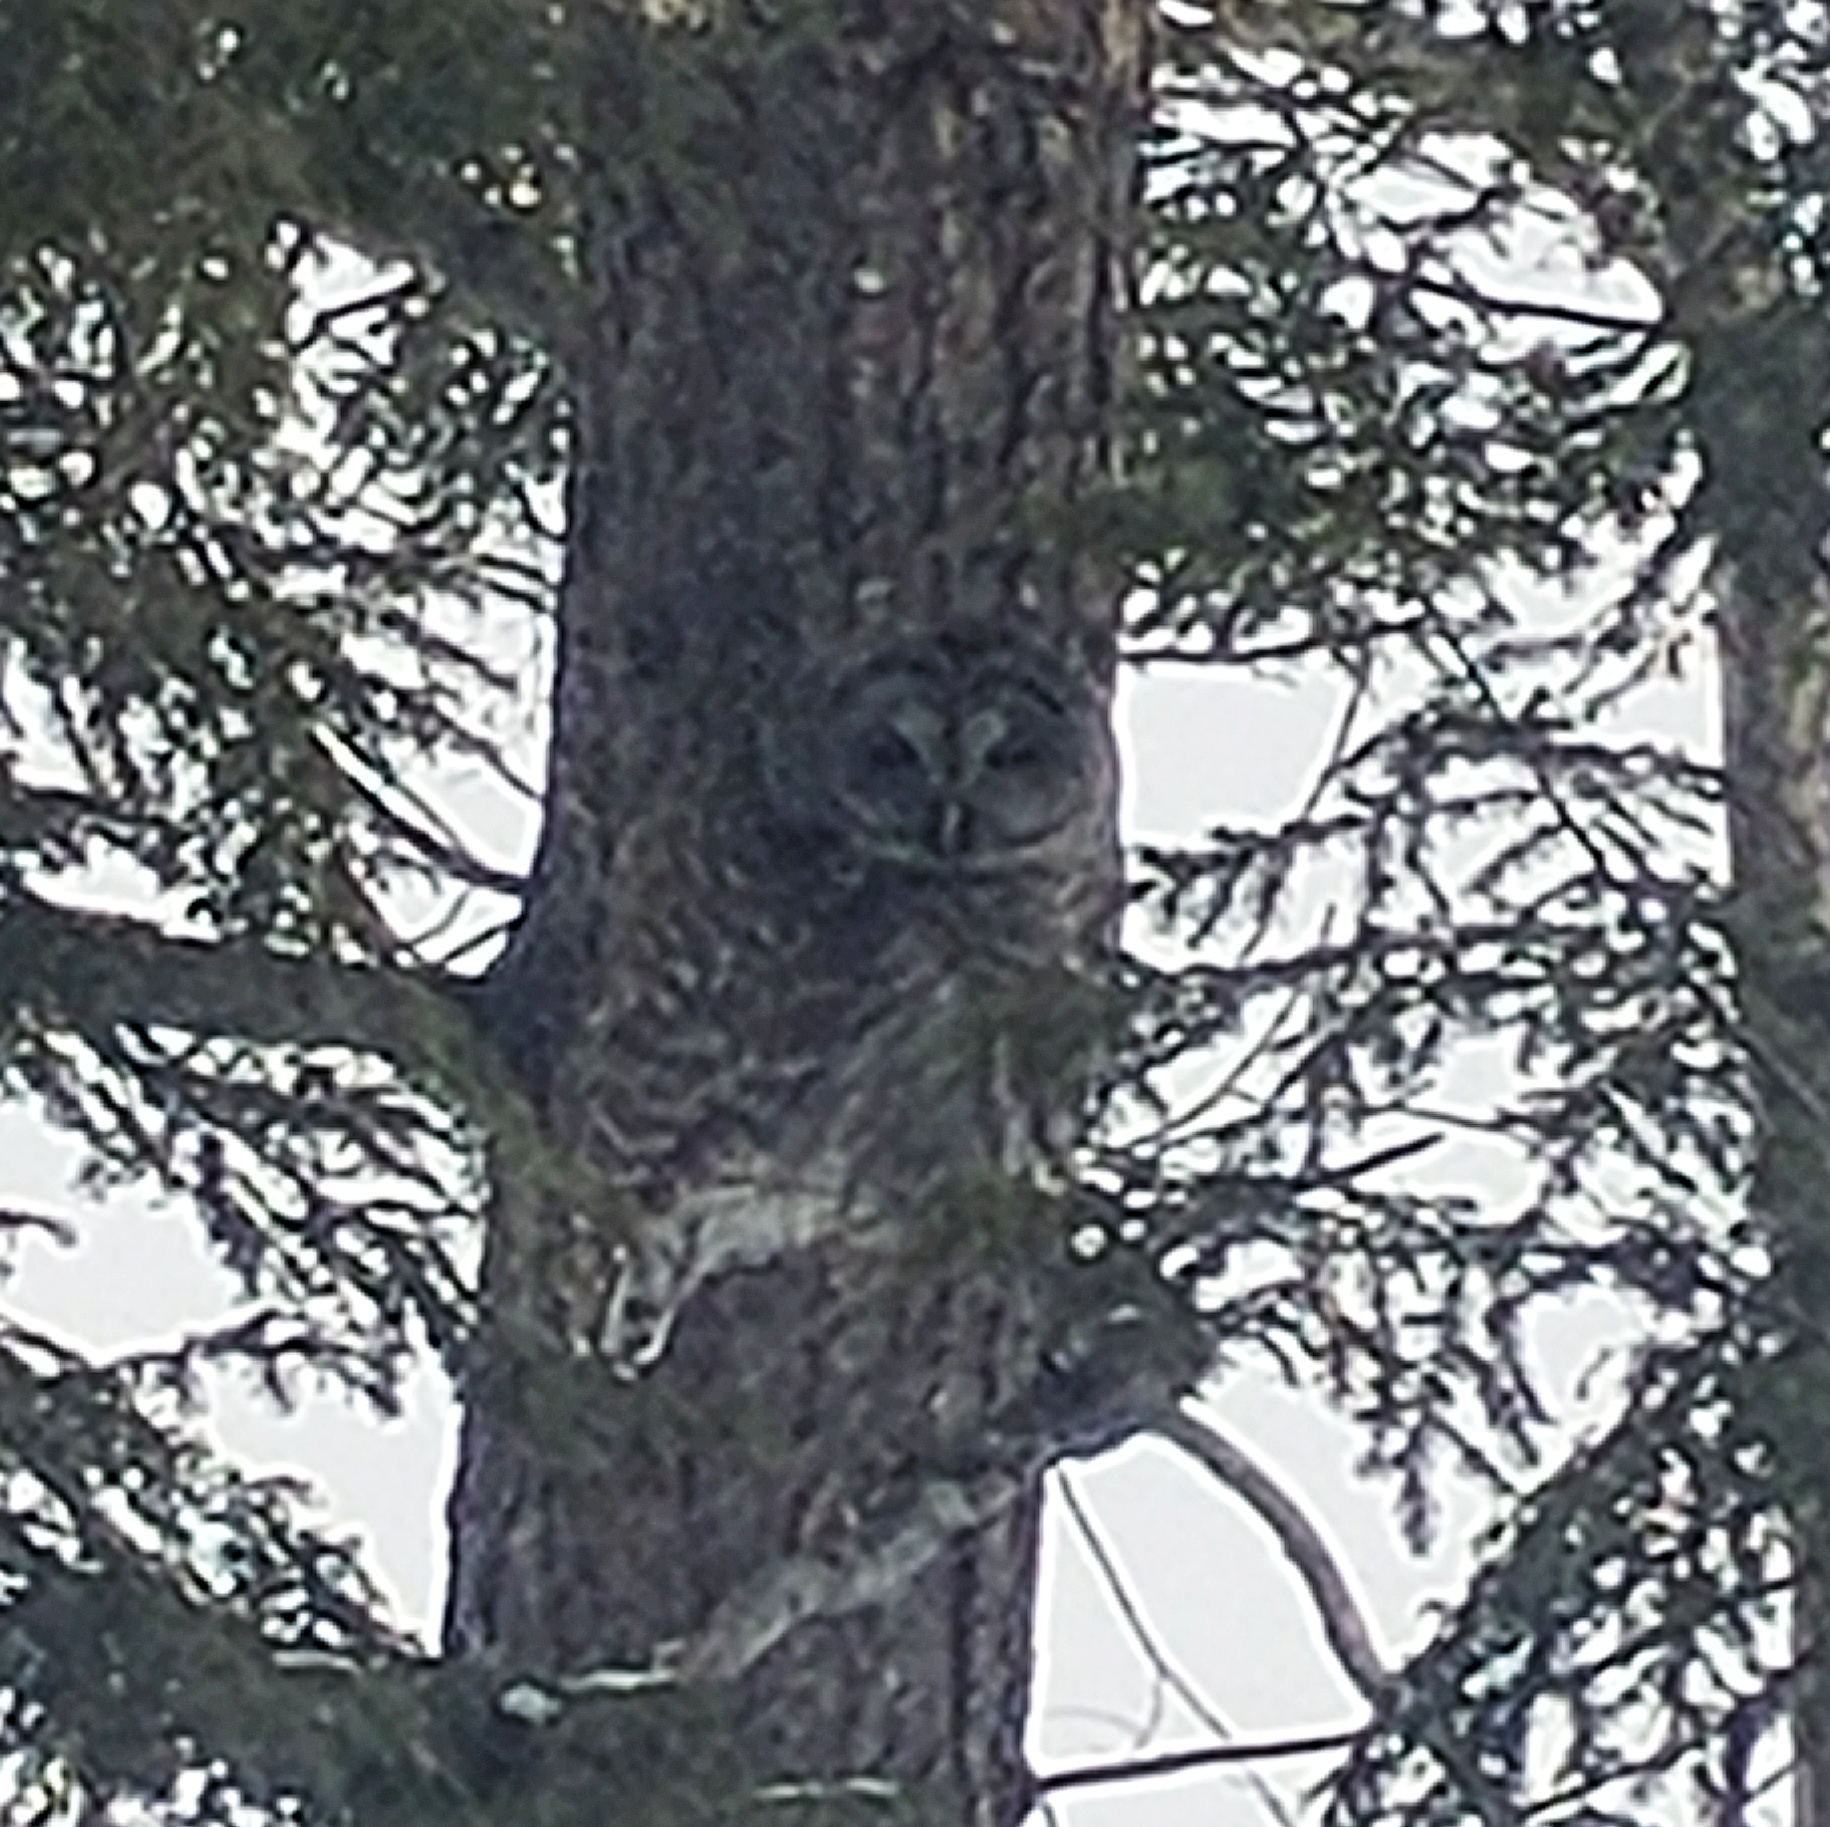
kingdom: Animalia
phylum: Chordata
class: Aves
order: Strigiformes
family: Strigidae
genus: Strix
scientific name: Strix varia
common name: Barred owl
